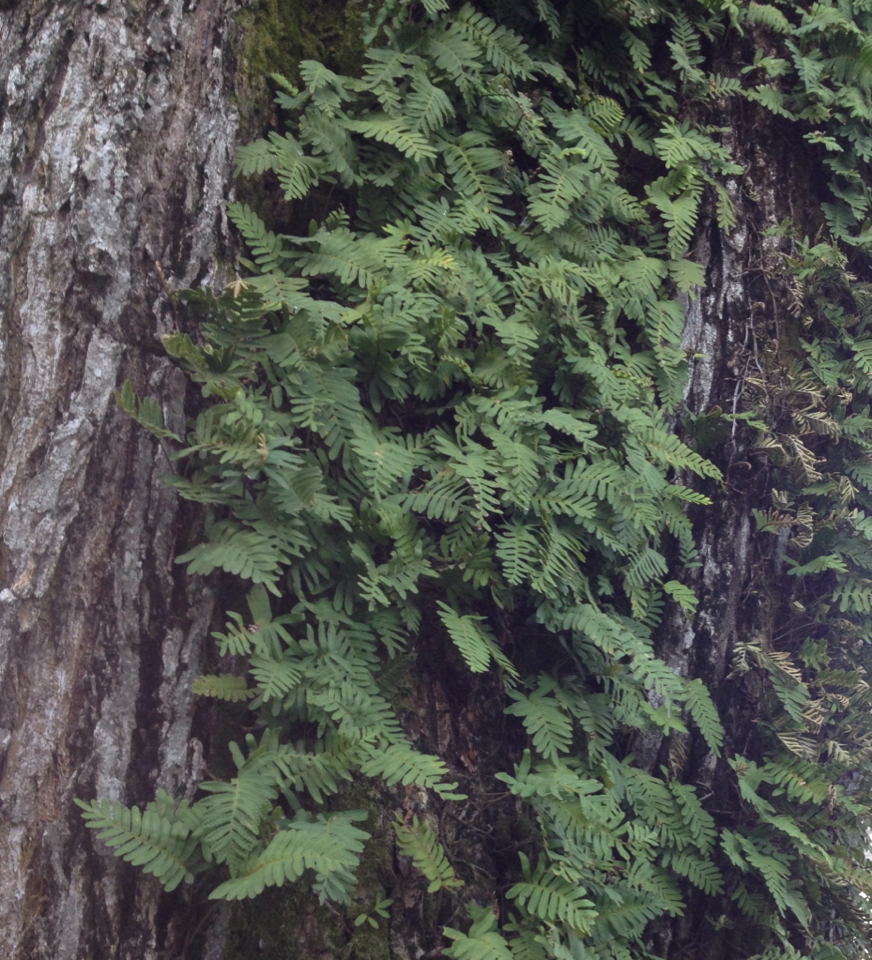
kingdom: Plantae
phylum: Tracheophyta
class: Polypodiopsida
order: Polypodiales
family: Polypodiaceae
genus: Pleopeltis
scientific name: Pleopeltis michauxiana
